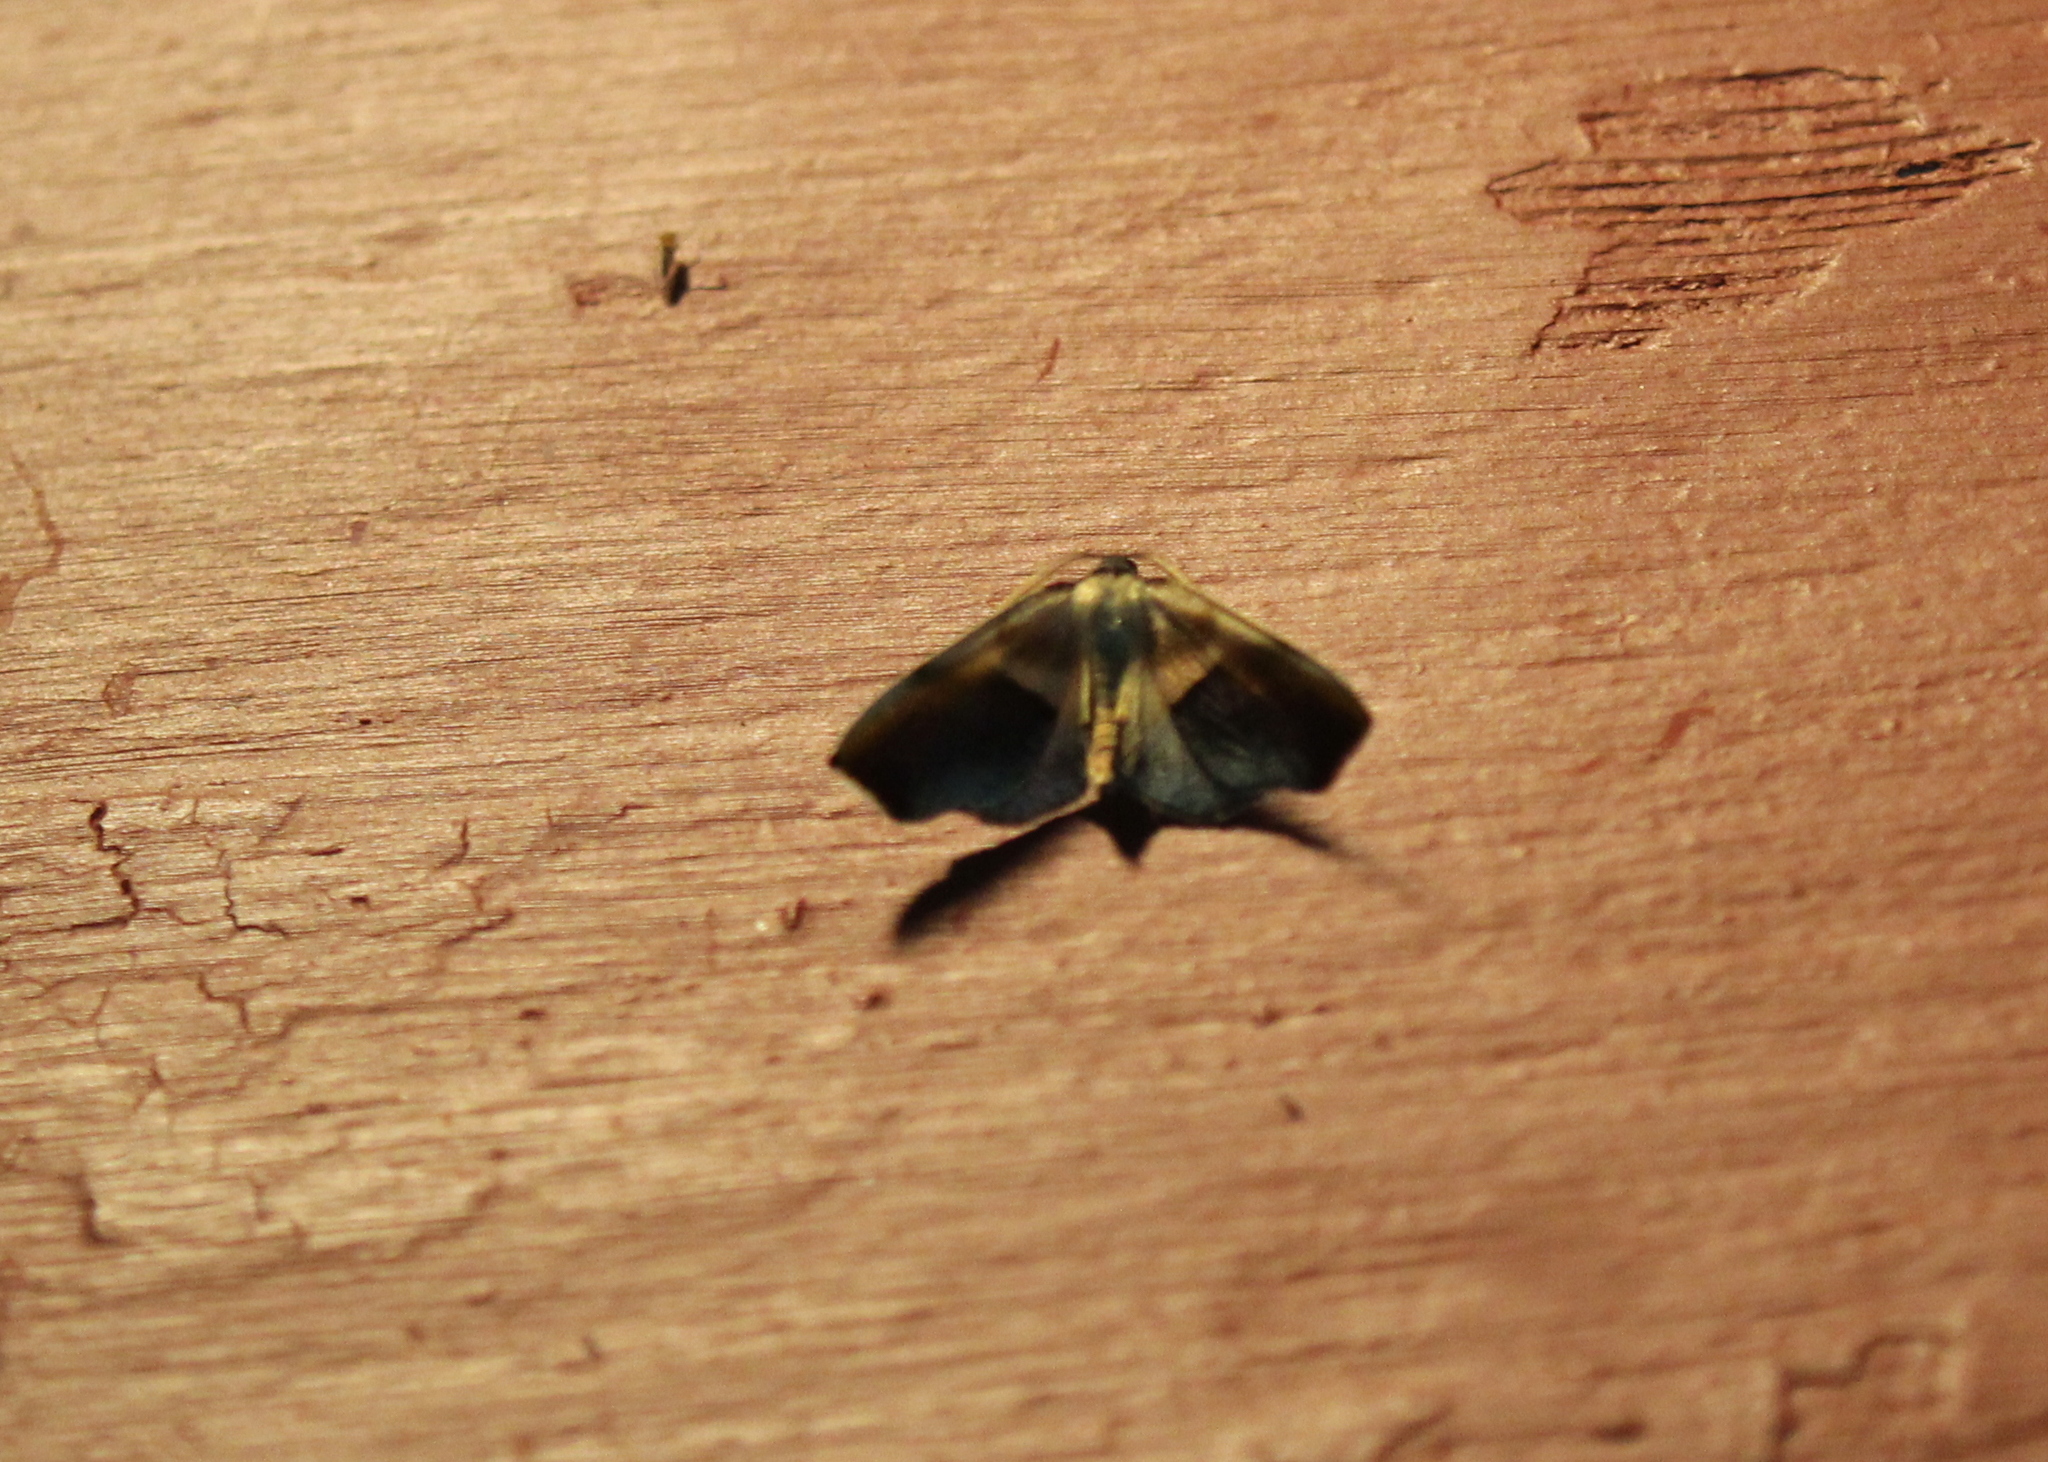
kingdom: Animalia
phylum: Arthropoda
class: Insecta
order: Lepidoptera
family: Geometridae
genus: Plagodis
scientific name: Plagodis kuetzingi
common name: Purple plagodis
